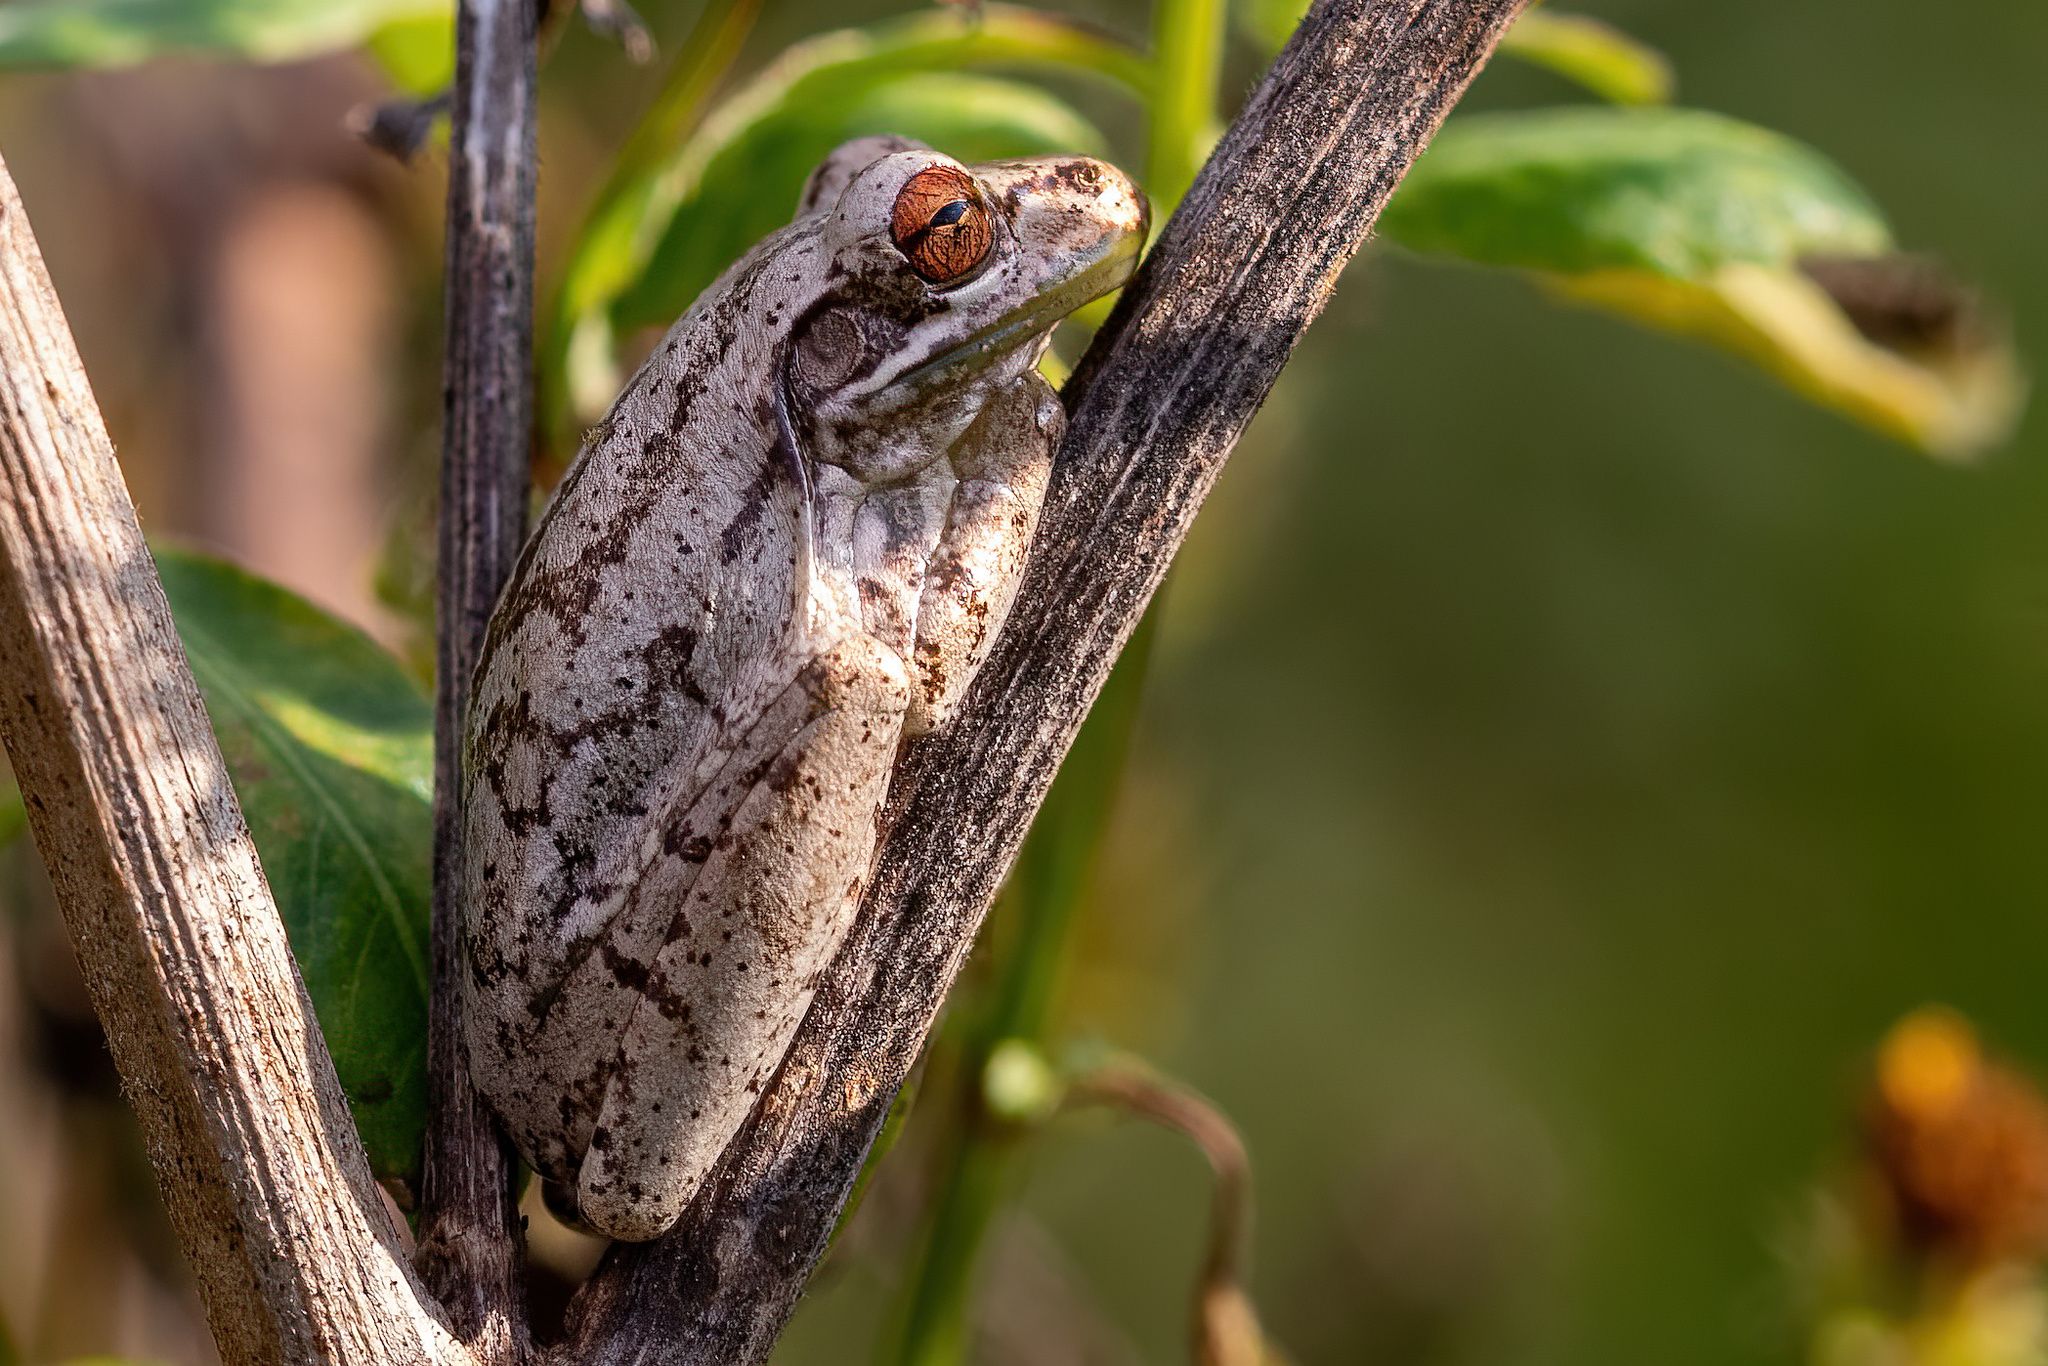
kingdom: Animalia
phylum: Chordata
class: Amphibia
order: Anura
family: Hylidae
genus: Osteopilus
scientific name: Osteopilus septentrionalis
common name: Cuban treefrog
